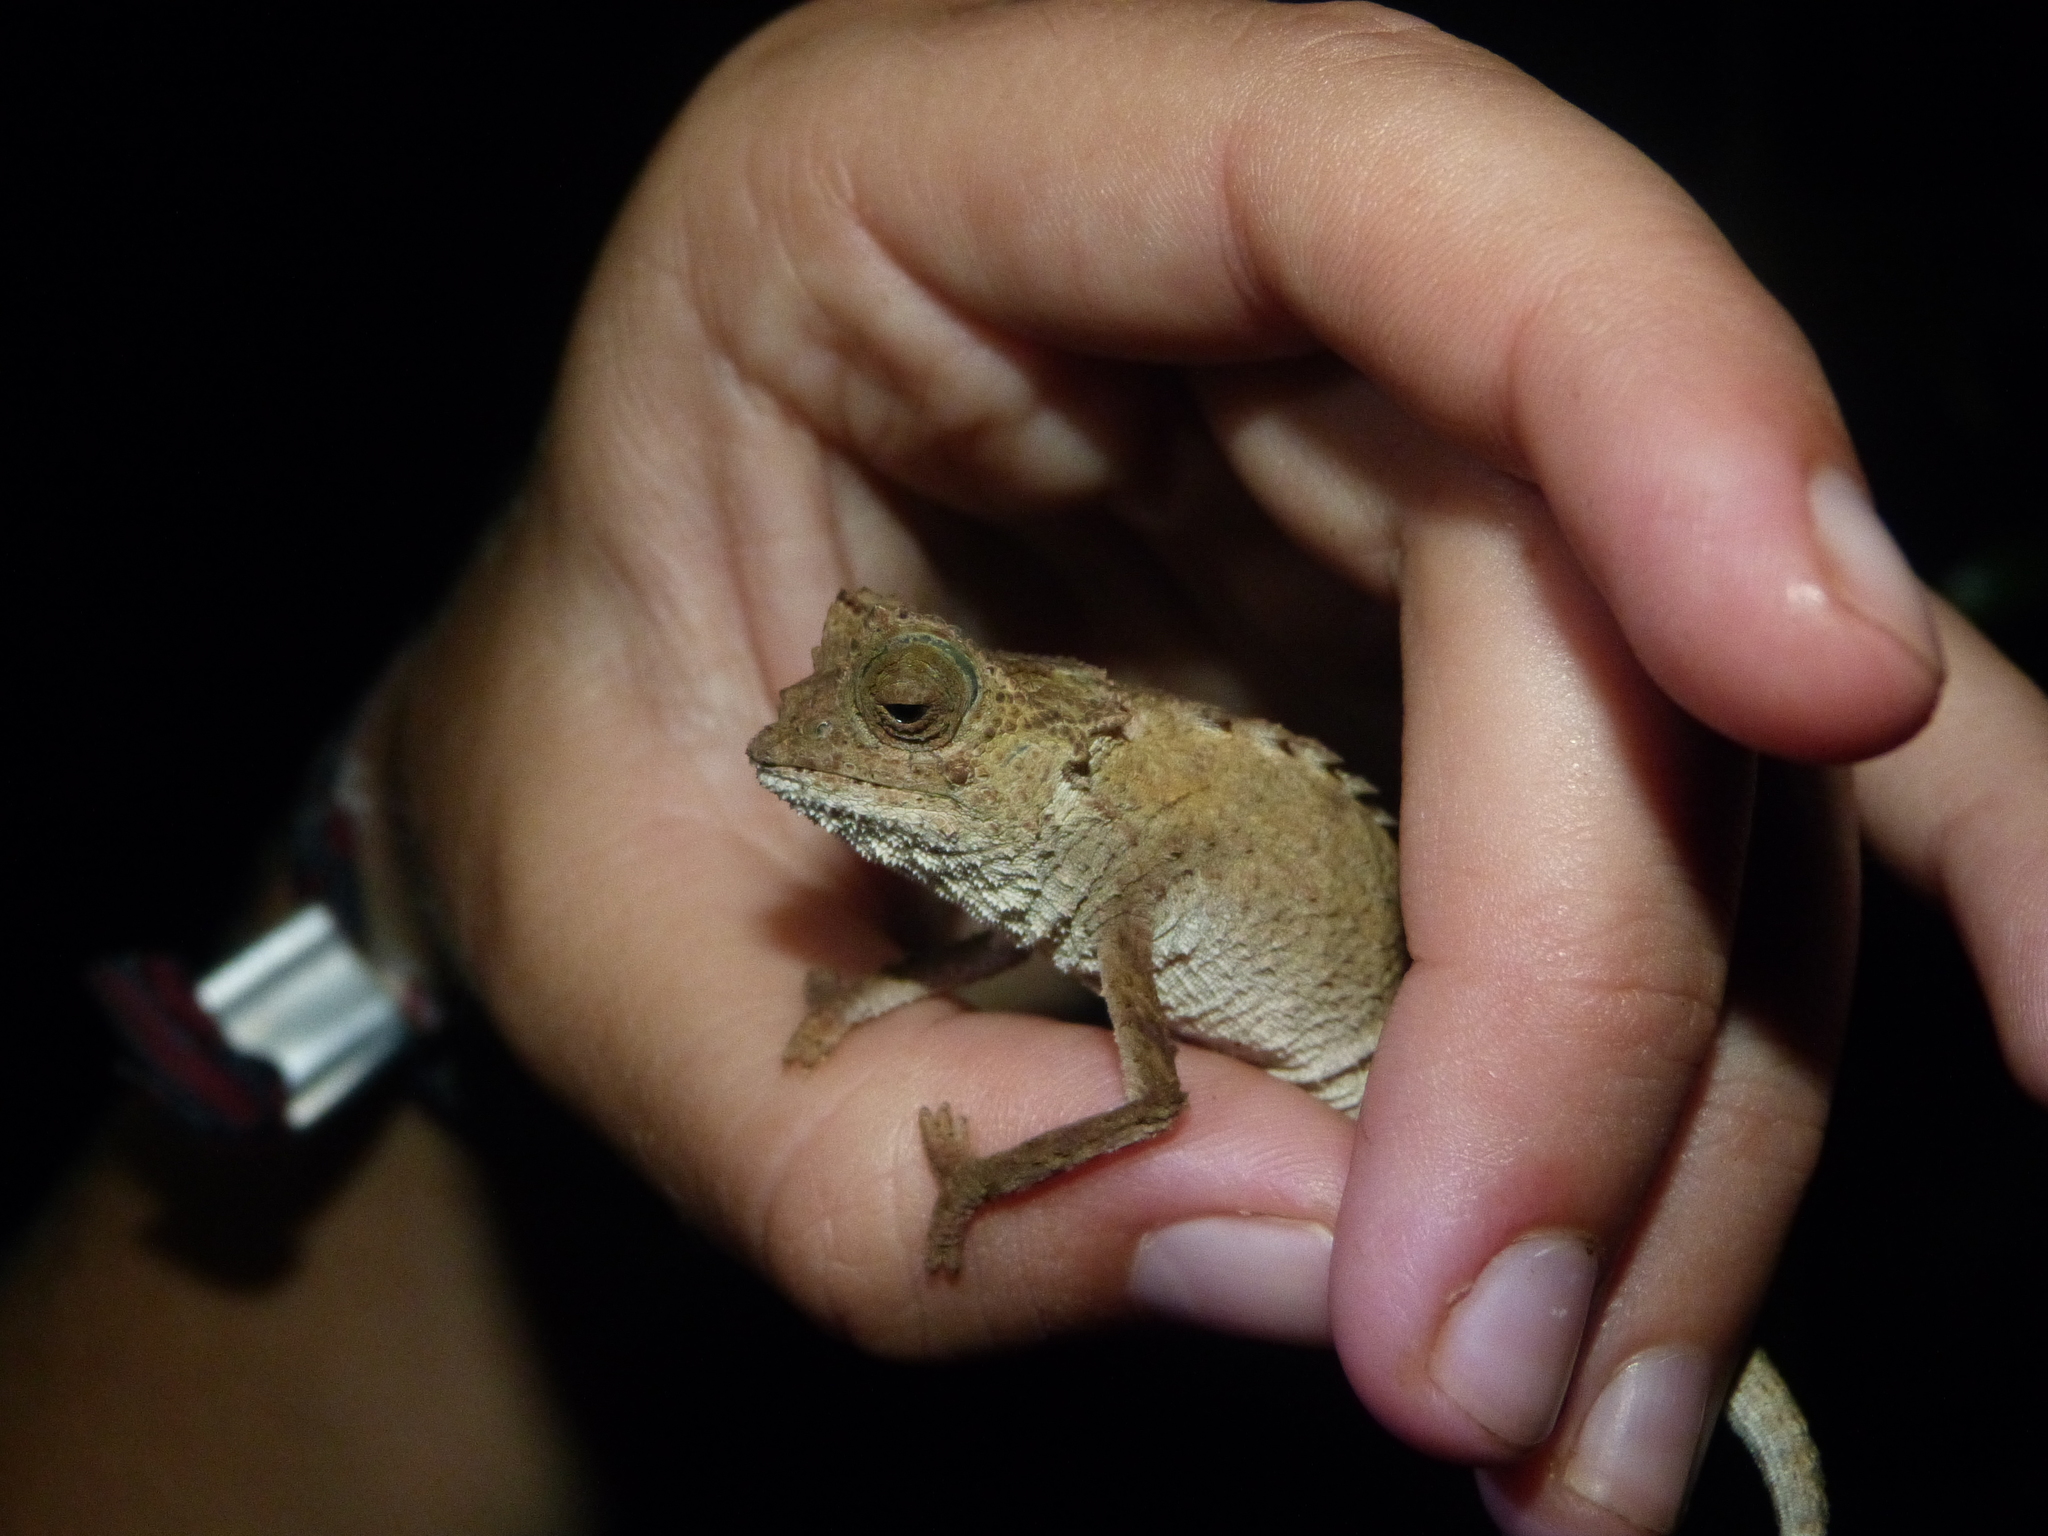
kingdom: Animalia
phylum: Chordata
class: Squamata
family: Chamaeleonidae
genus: Brookesia
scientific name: Brookesia antakarana
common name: Antakarana leaf chameleon
